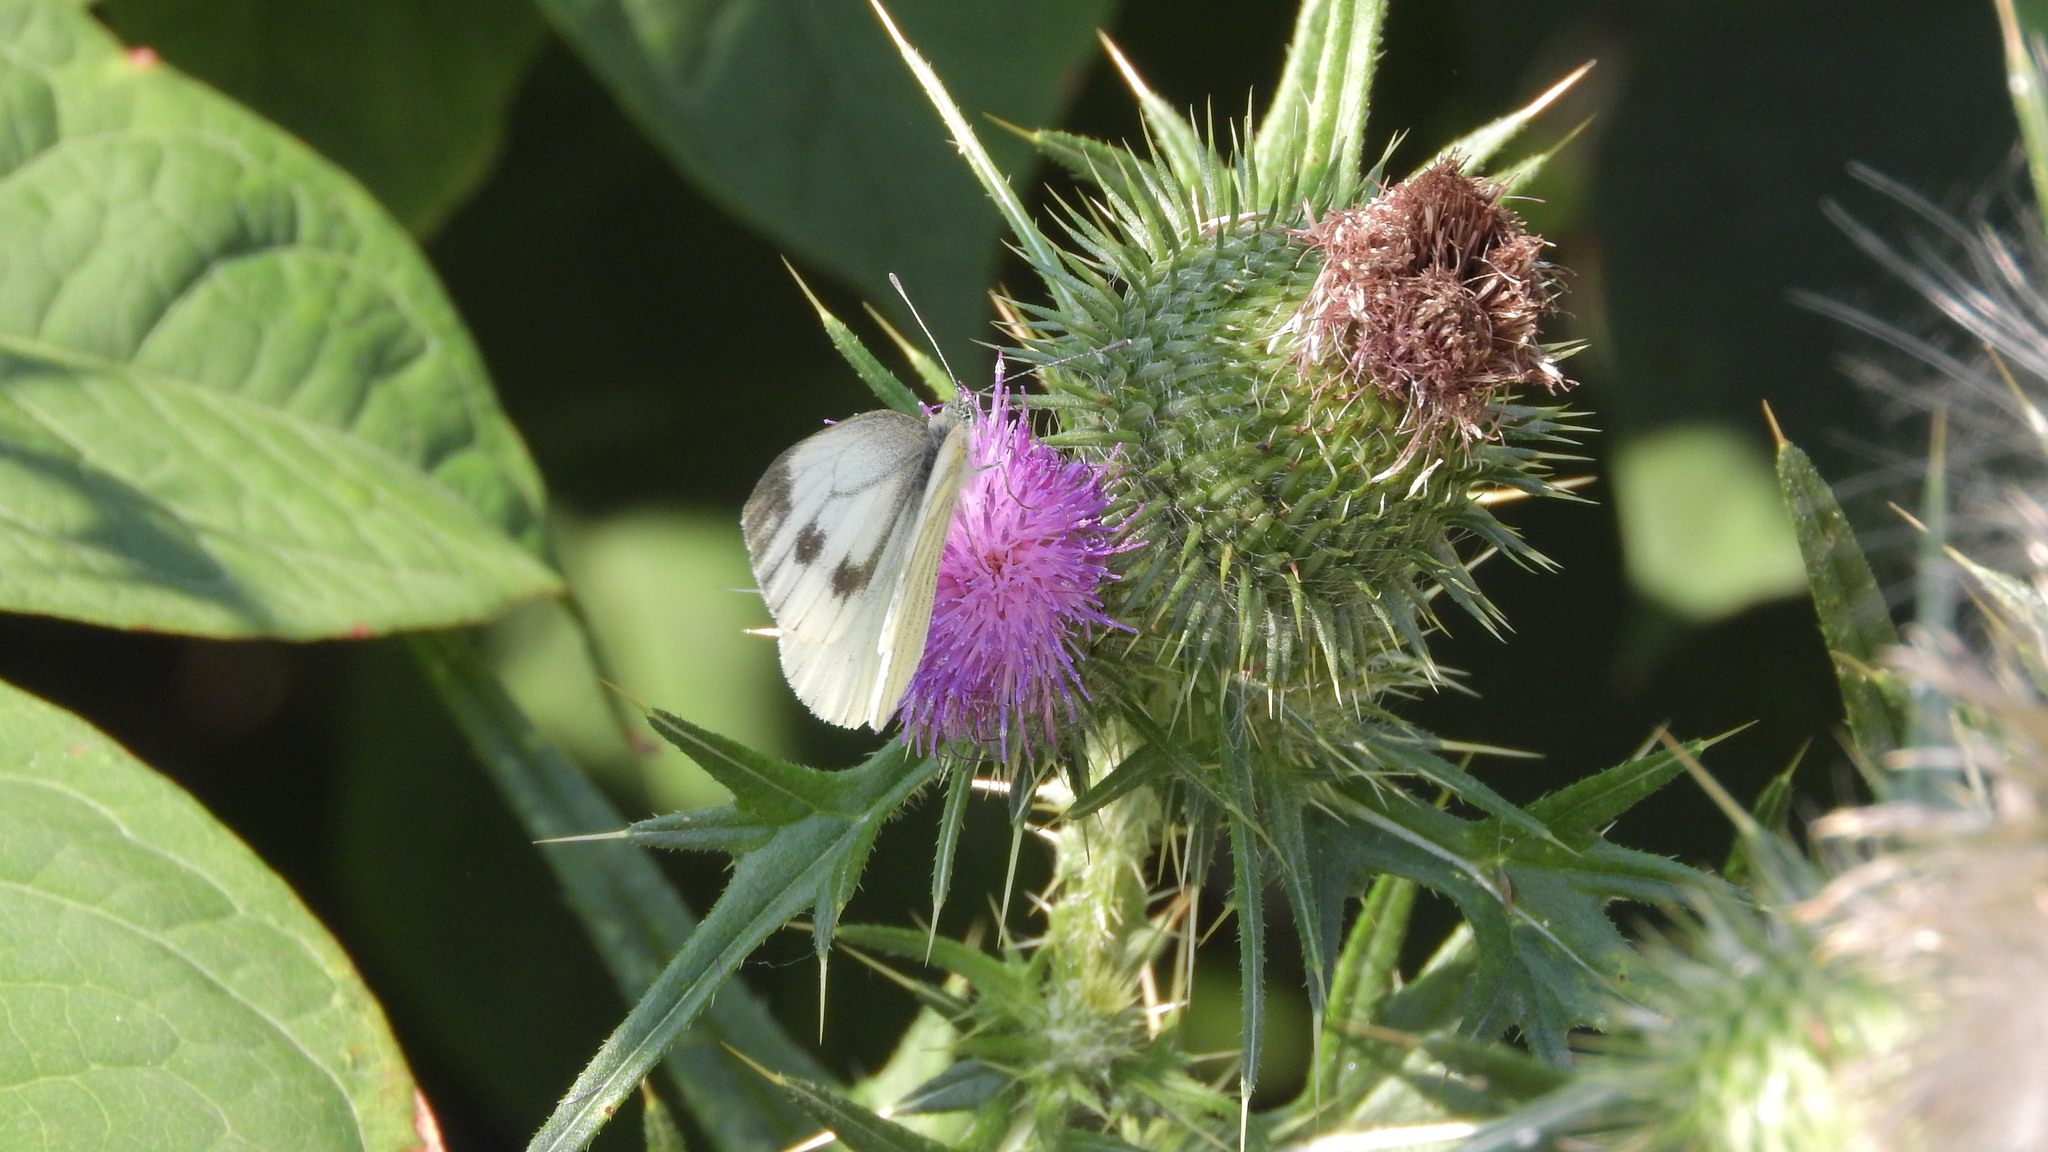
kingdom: Animalia
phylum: Arthropoda
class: Insecta
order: Lepidoptera
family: Pieridae
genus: Pieris
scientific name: Pieris napi
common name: Green-veined white
